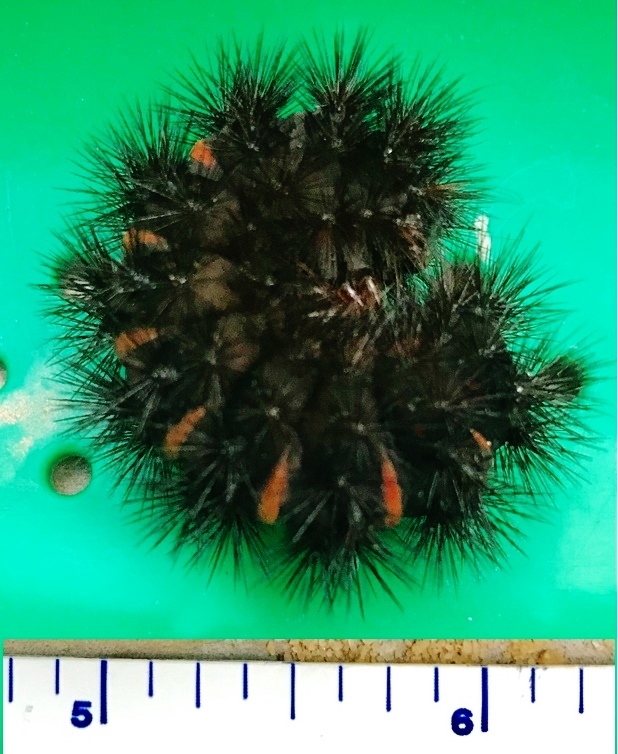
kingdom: Animalia
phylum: Arthropoda
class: Insecta
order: Lepidoptera
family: Erebidae
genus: Hypercompe
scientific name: Hypercompe scribonia
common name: Giant leopard moth
